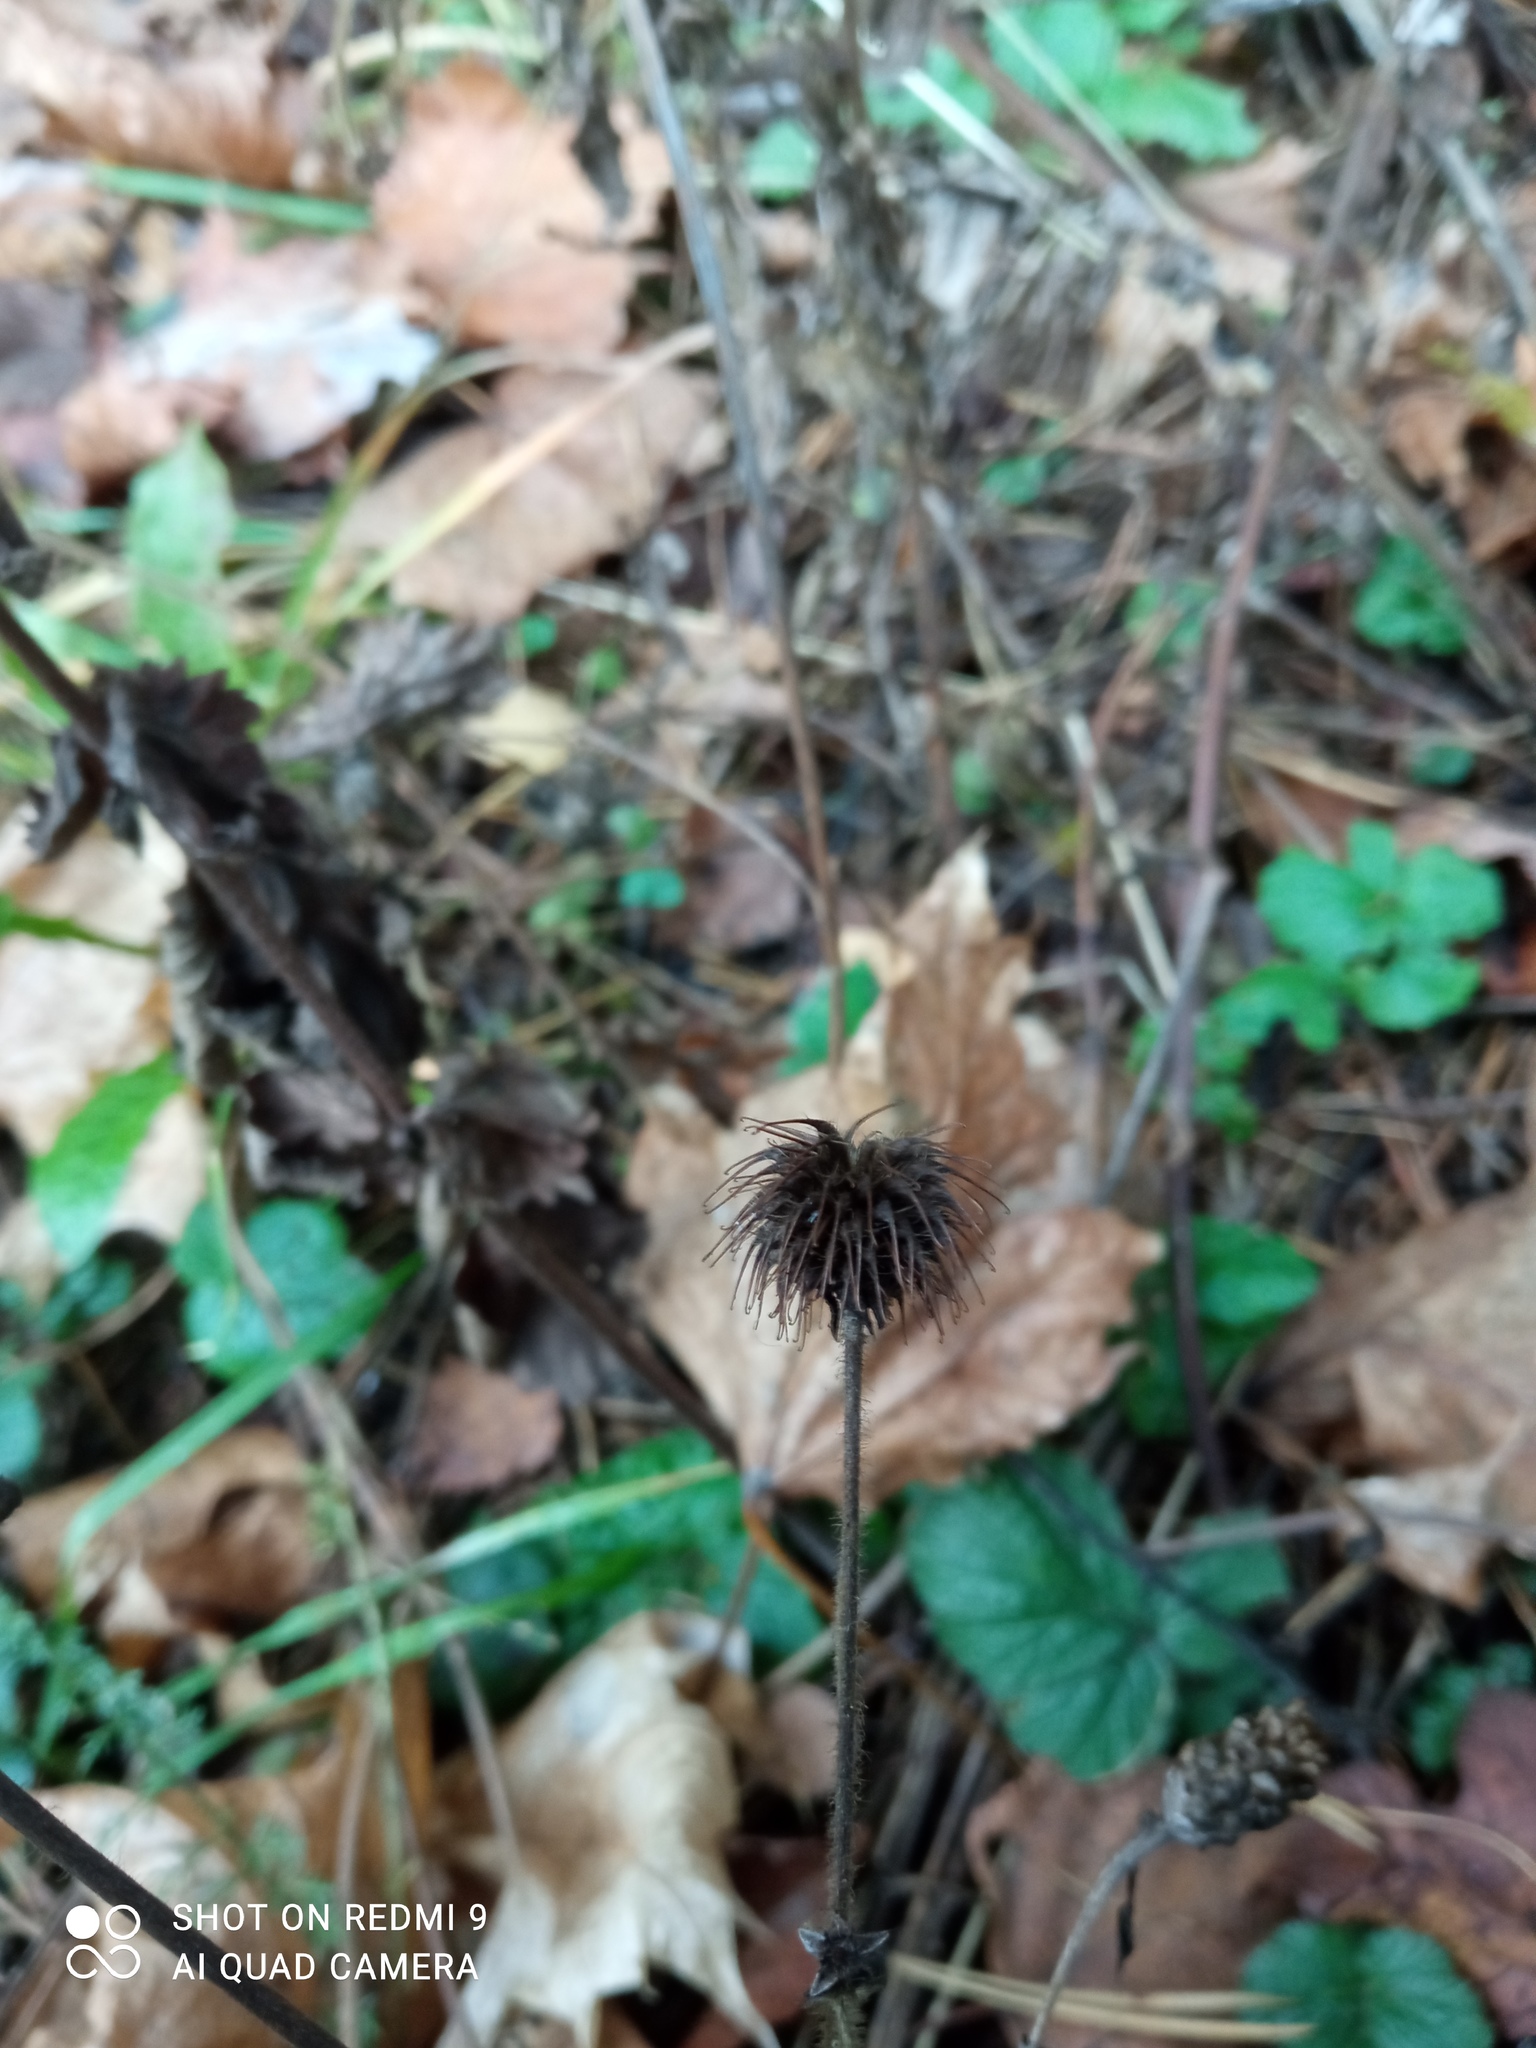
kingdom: Plantae
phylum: Tracheophyta
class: Magnoliopsida
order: Rosales
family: Rosaceae
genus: Geum
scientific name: Geum urbanum
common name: Wood avens
